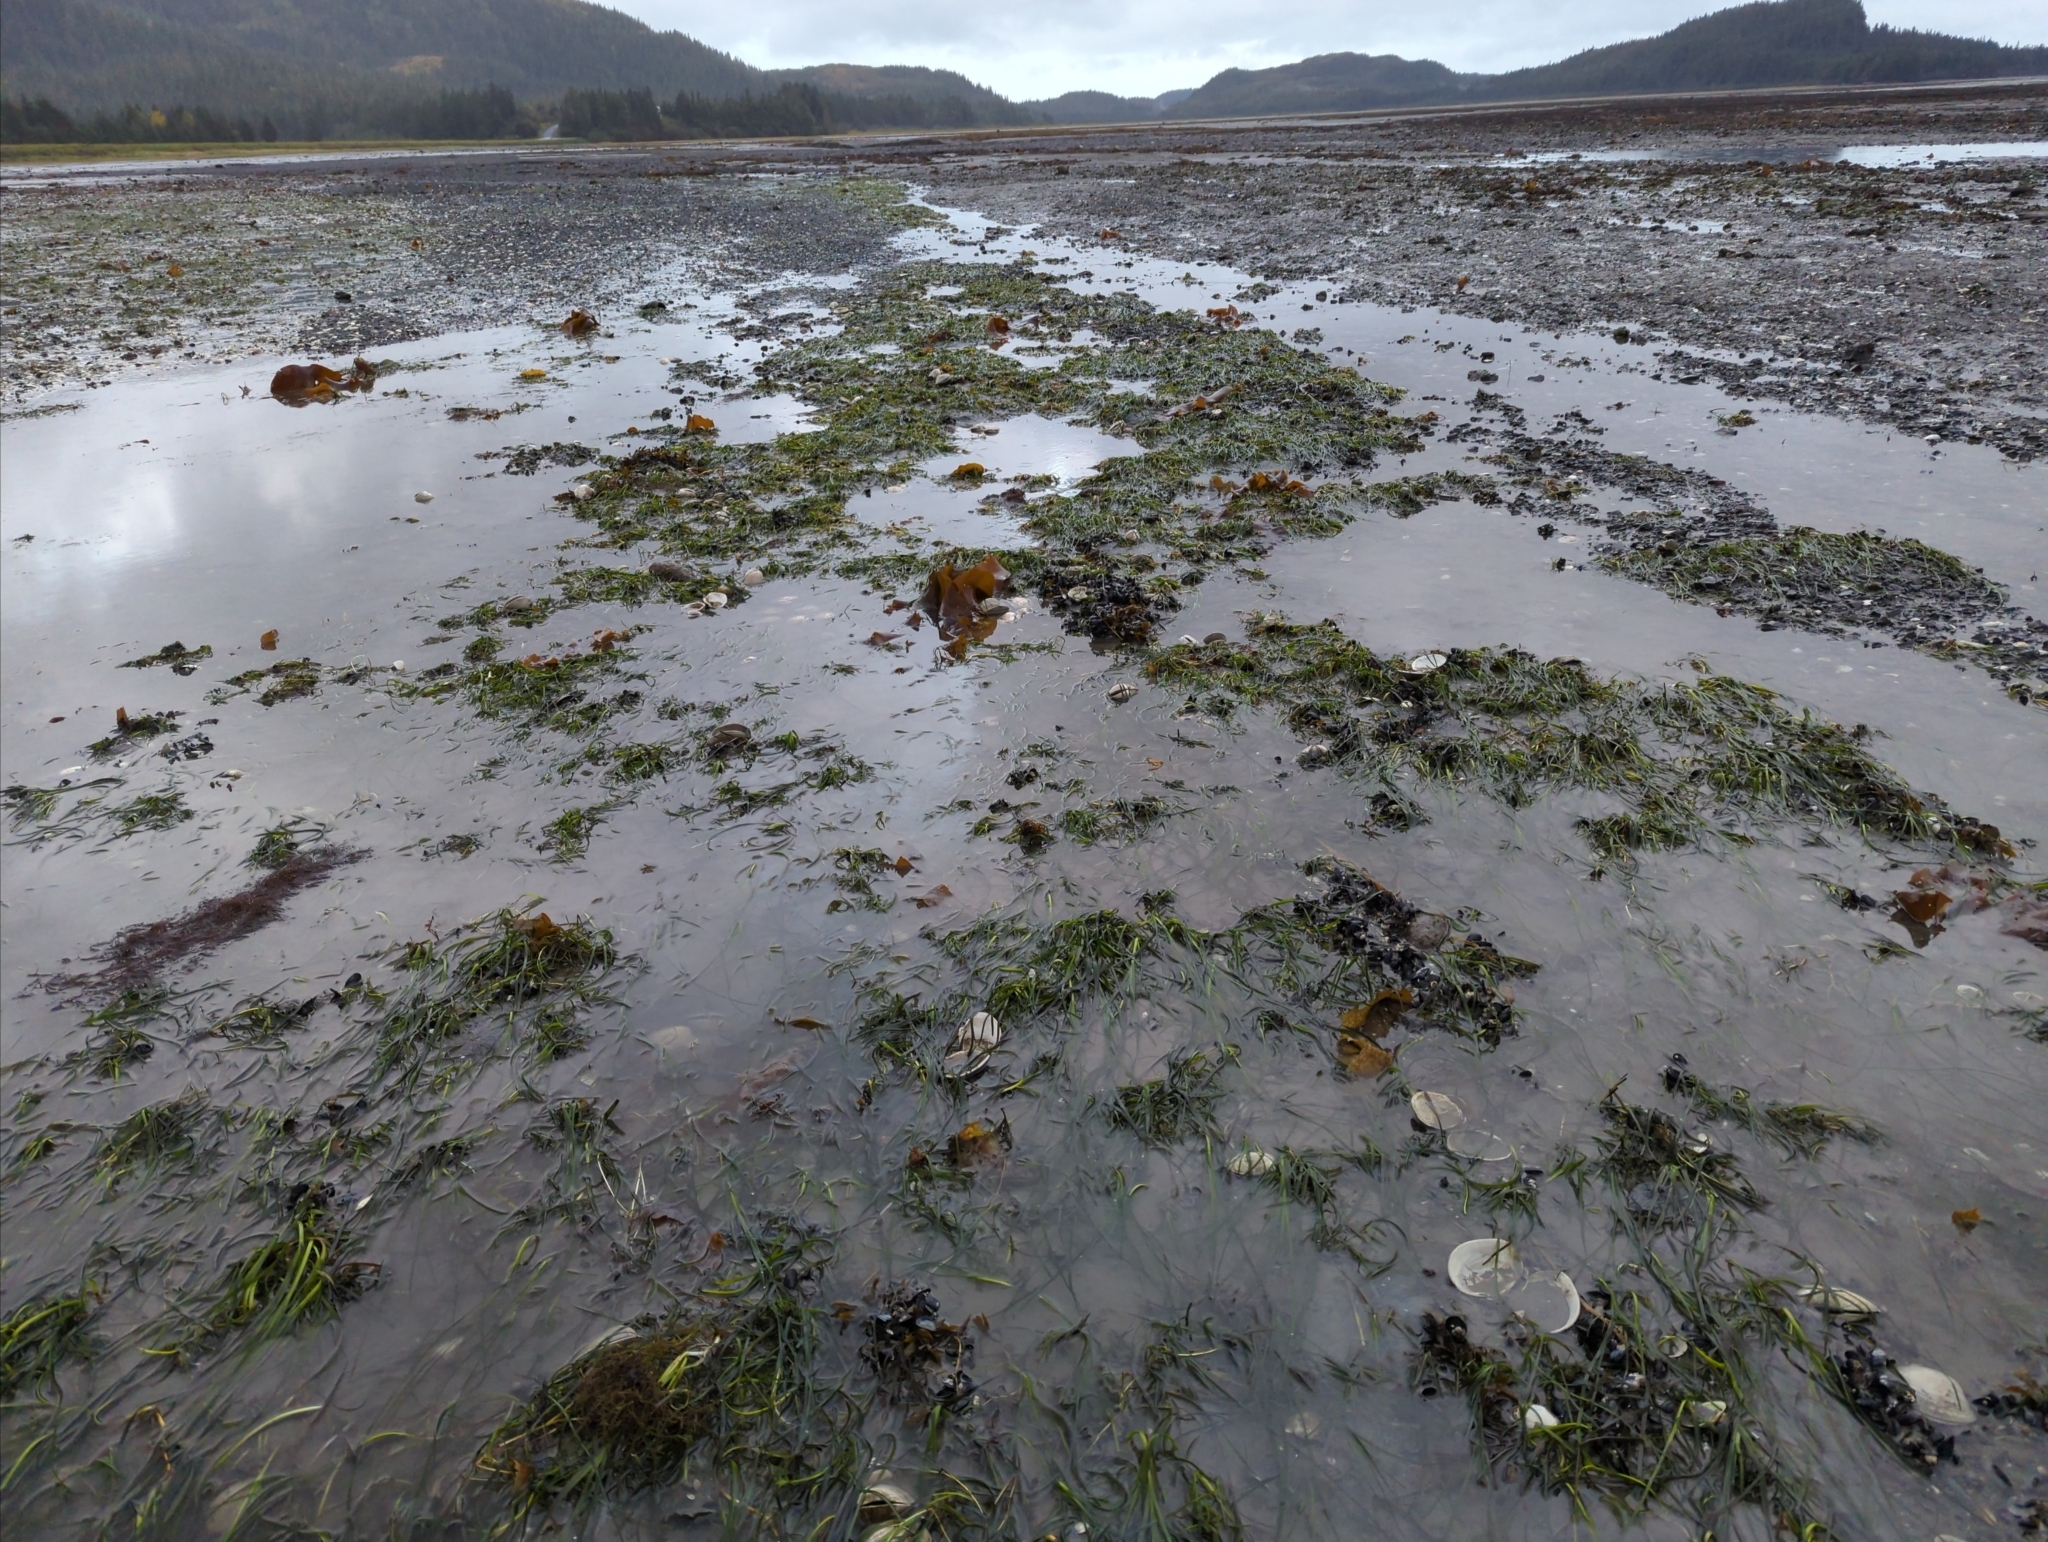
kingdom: Plantae
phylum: Tracheophyta
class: Liliopsida
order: Alismatales
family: Zosteraceae
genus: Zostera
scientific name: Zostera marina
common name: Eelgrass
